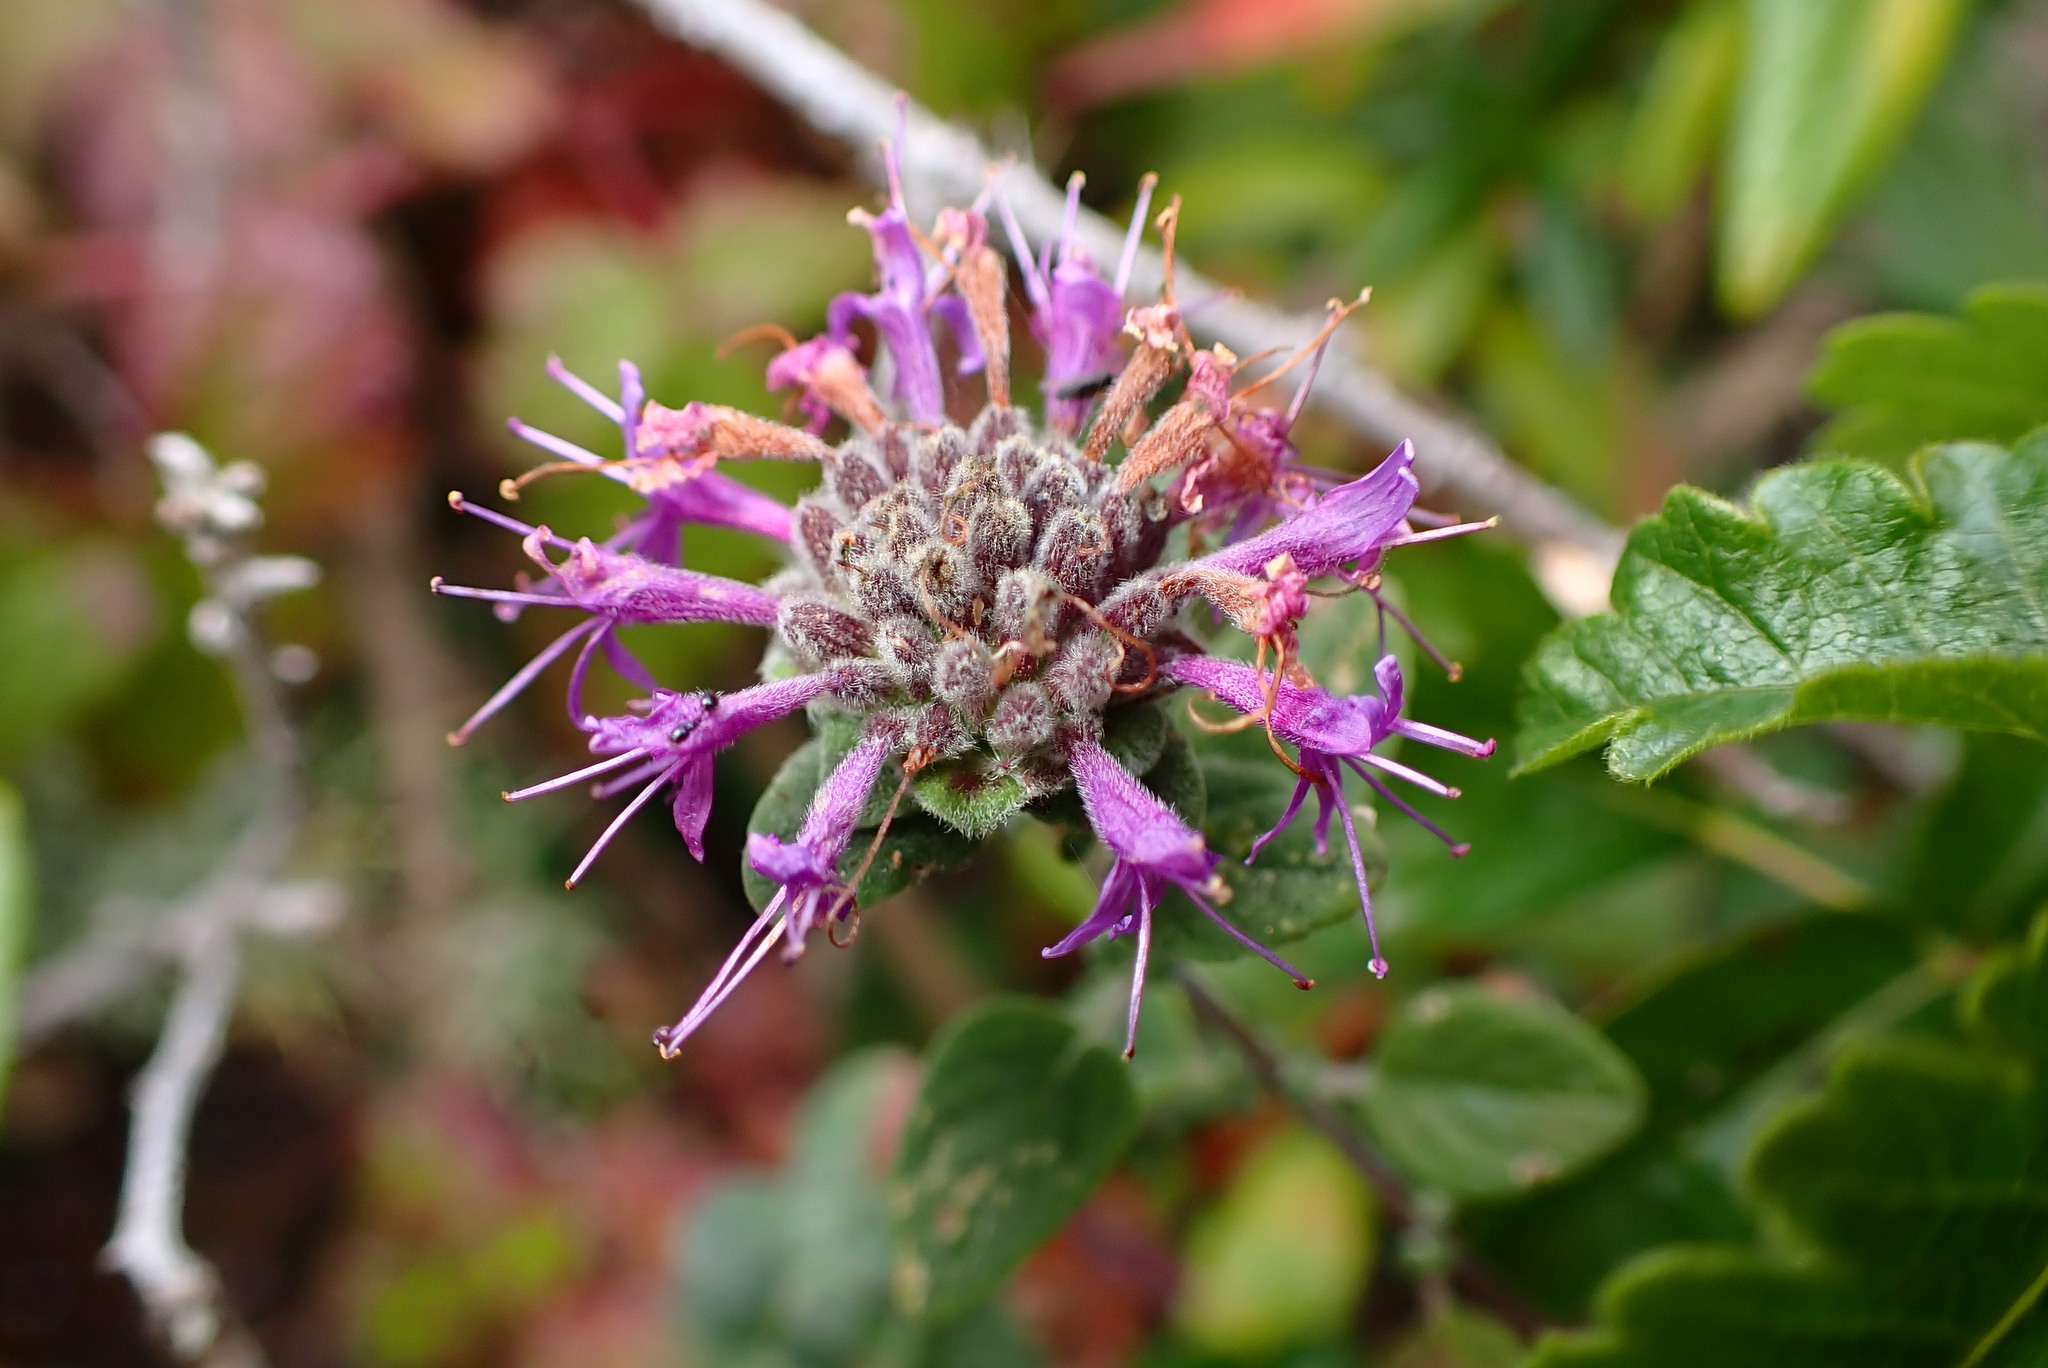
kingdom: Plantae
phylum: Tracheophyta
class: Magnoliopsida
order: Lamiales
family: Lamiaceae
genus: Monardella
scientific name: Monardella odoratissima
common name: Pacific monardella
